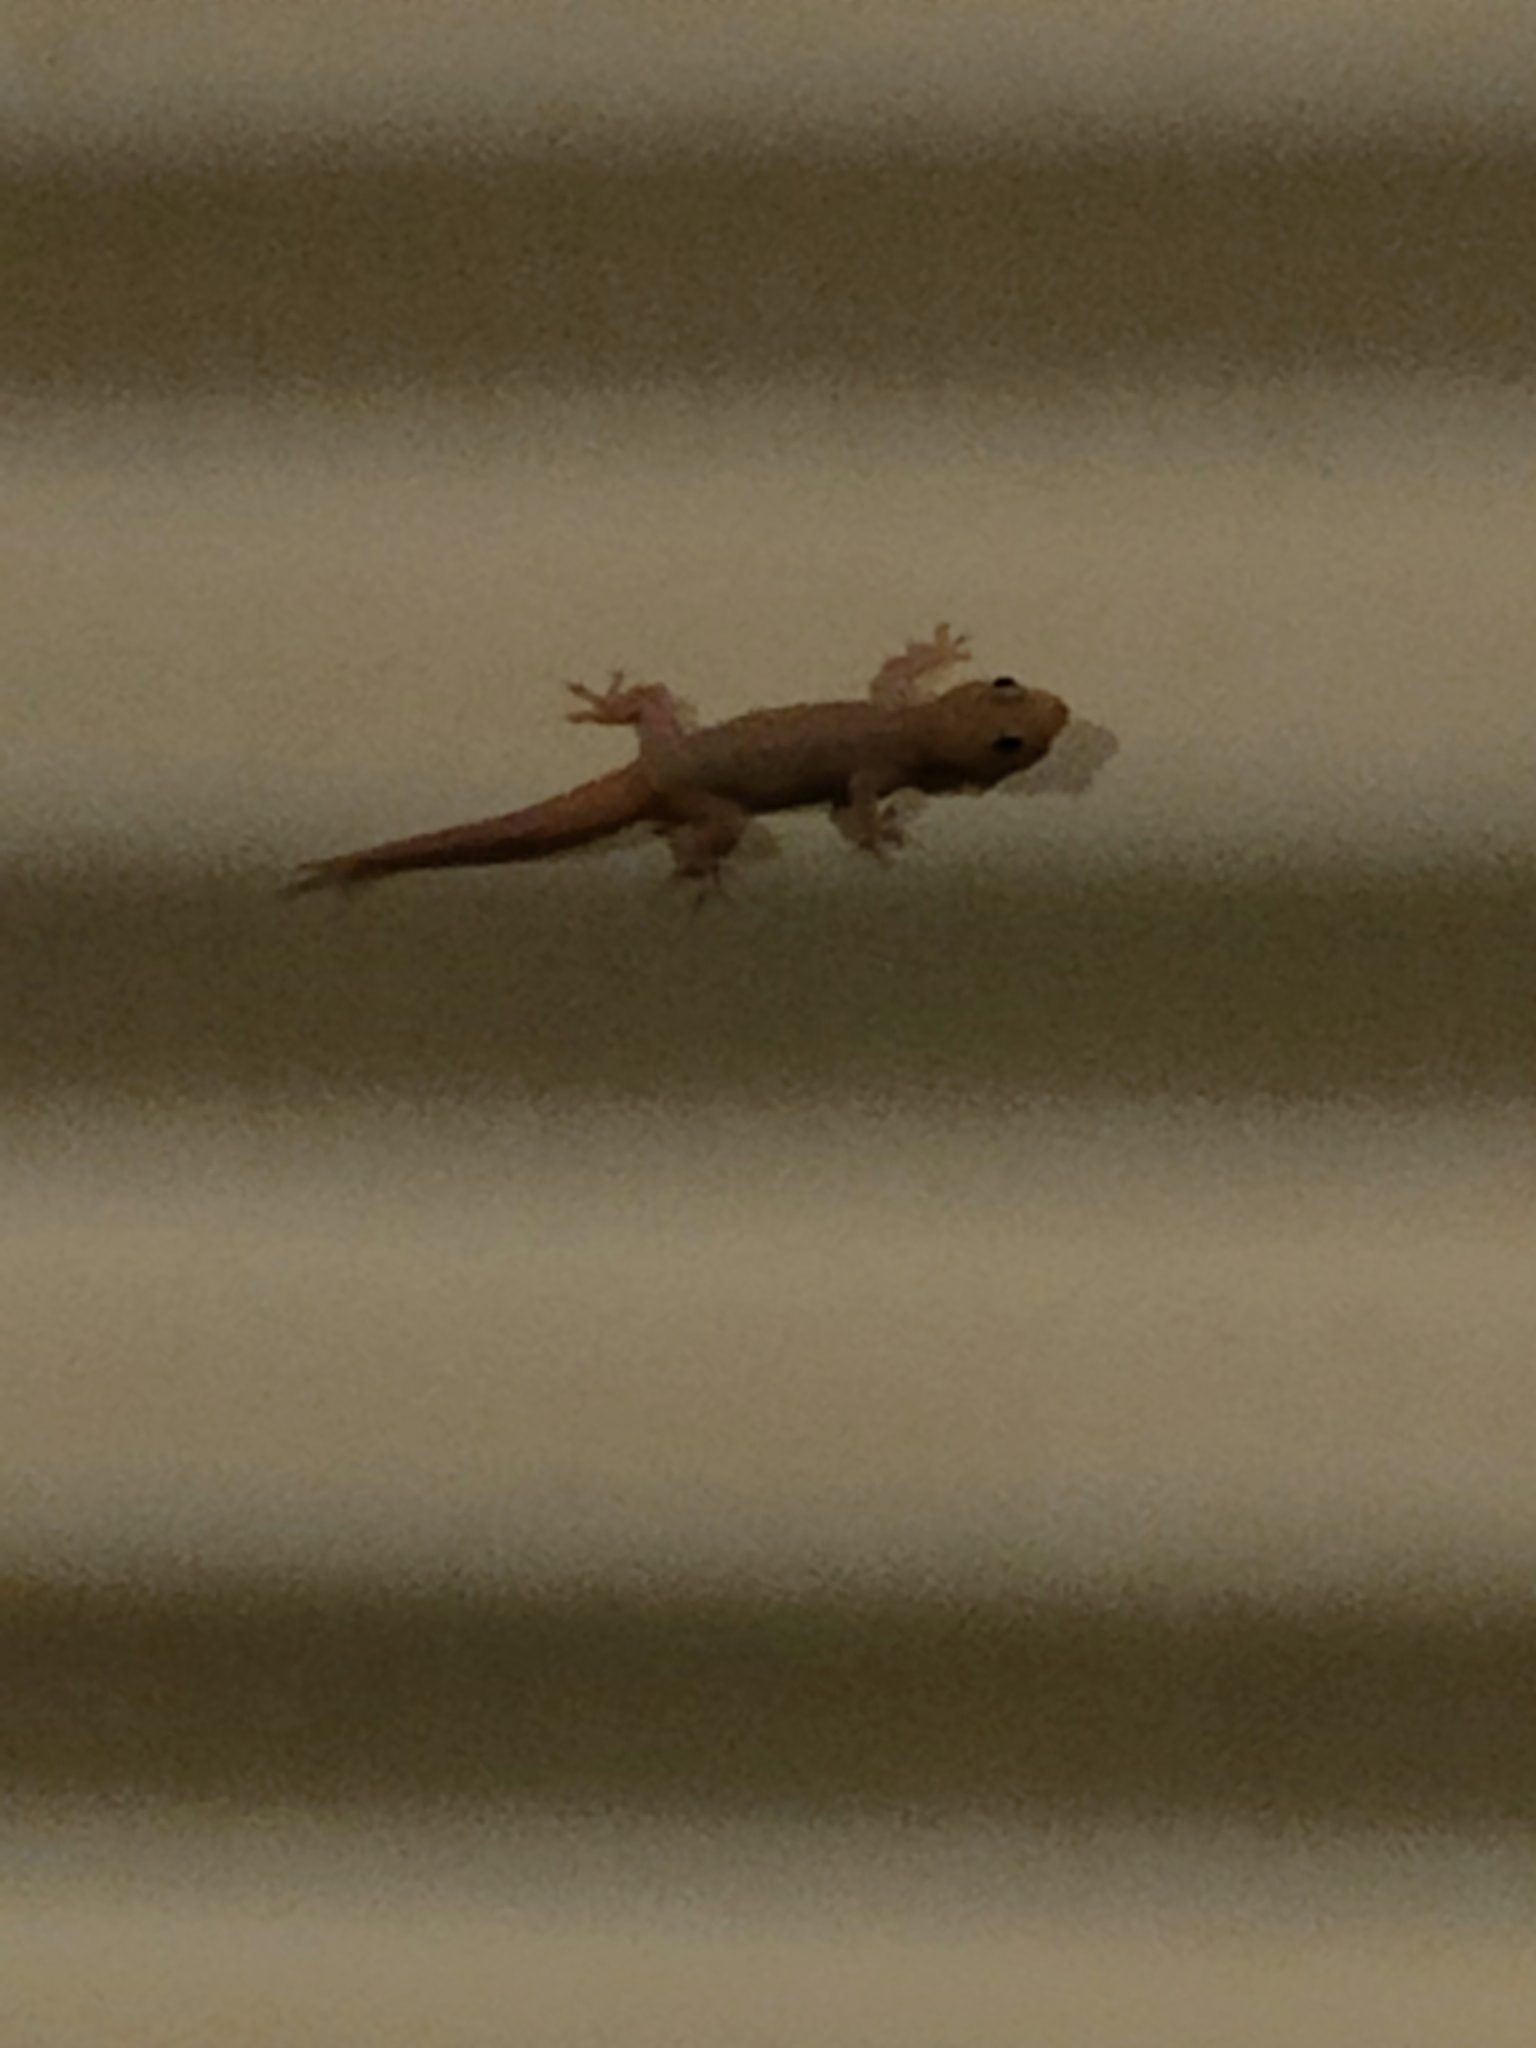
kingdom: Animalia
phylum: Chordata
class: Squamata
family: Gekkonidae
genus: Hemidactylus
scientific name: Hemidactylus frenatus
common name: Common house gecko
